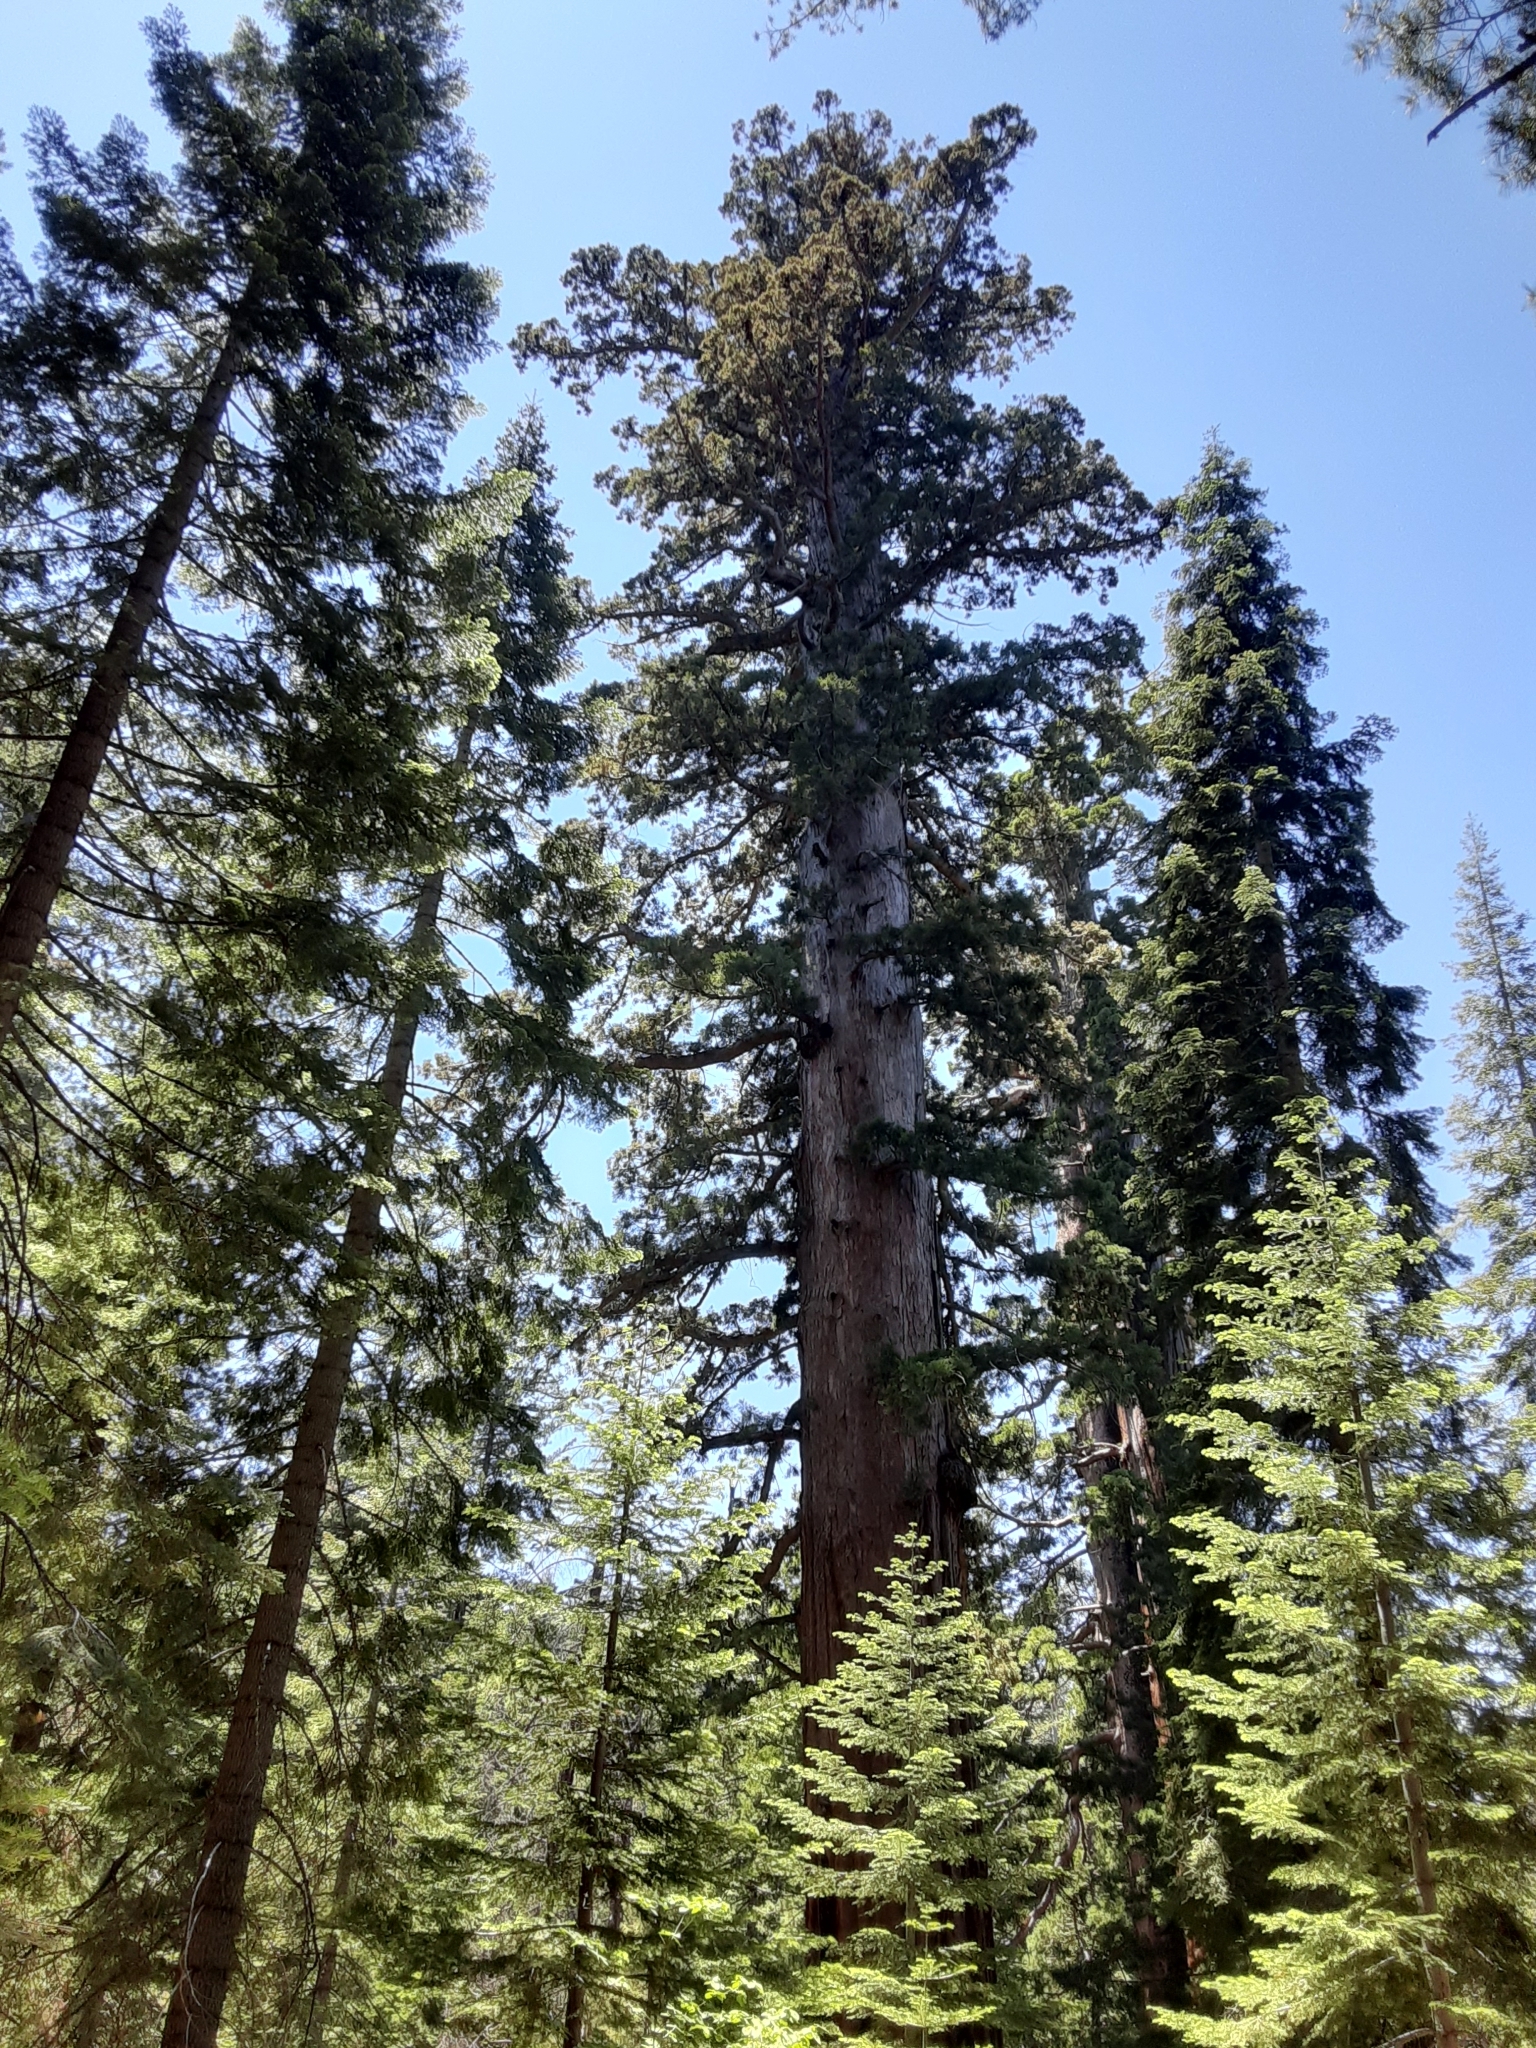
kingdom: Plantae
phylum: Tracheophyta
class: Pinopsida
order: Pinales
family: Cupressaceae
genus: Sequoiadendron
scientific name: Sequoiadendron giganteum
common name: Wellingtonia
